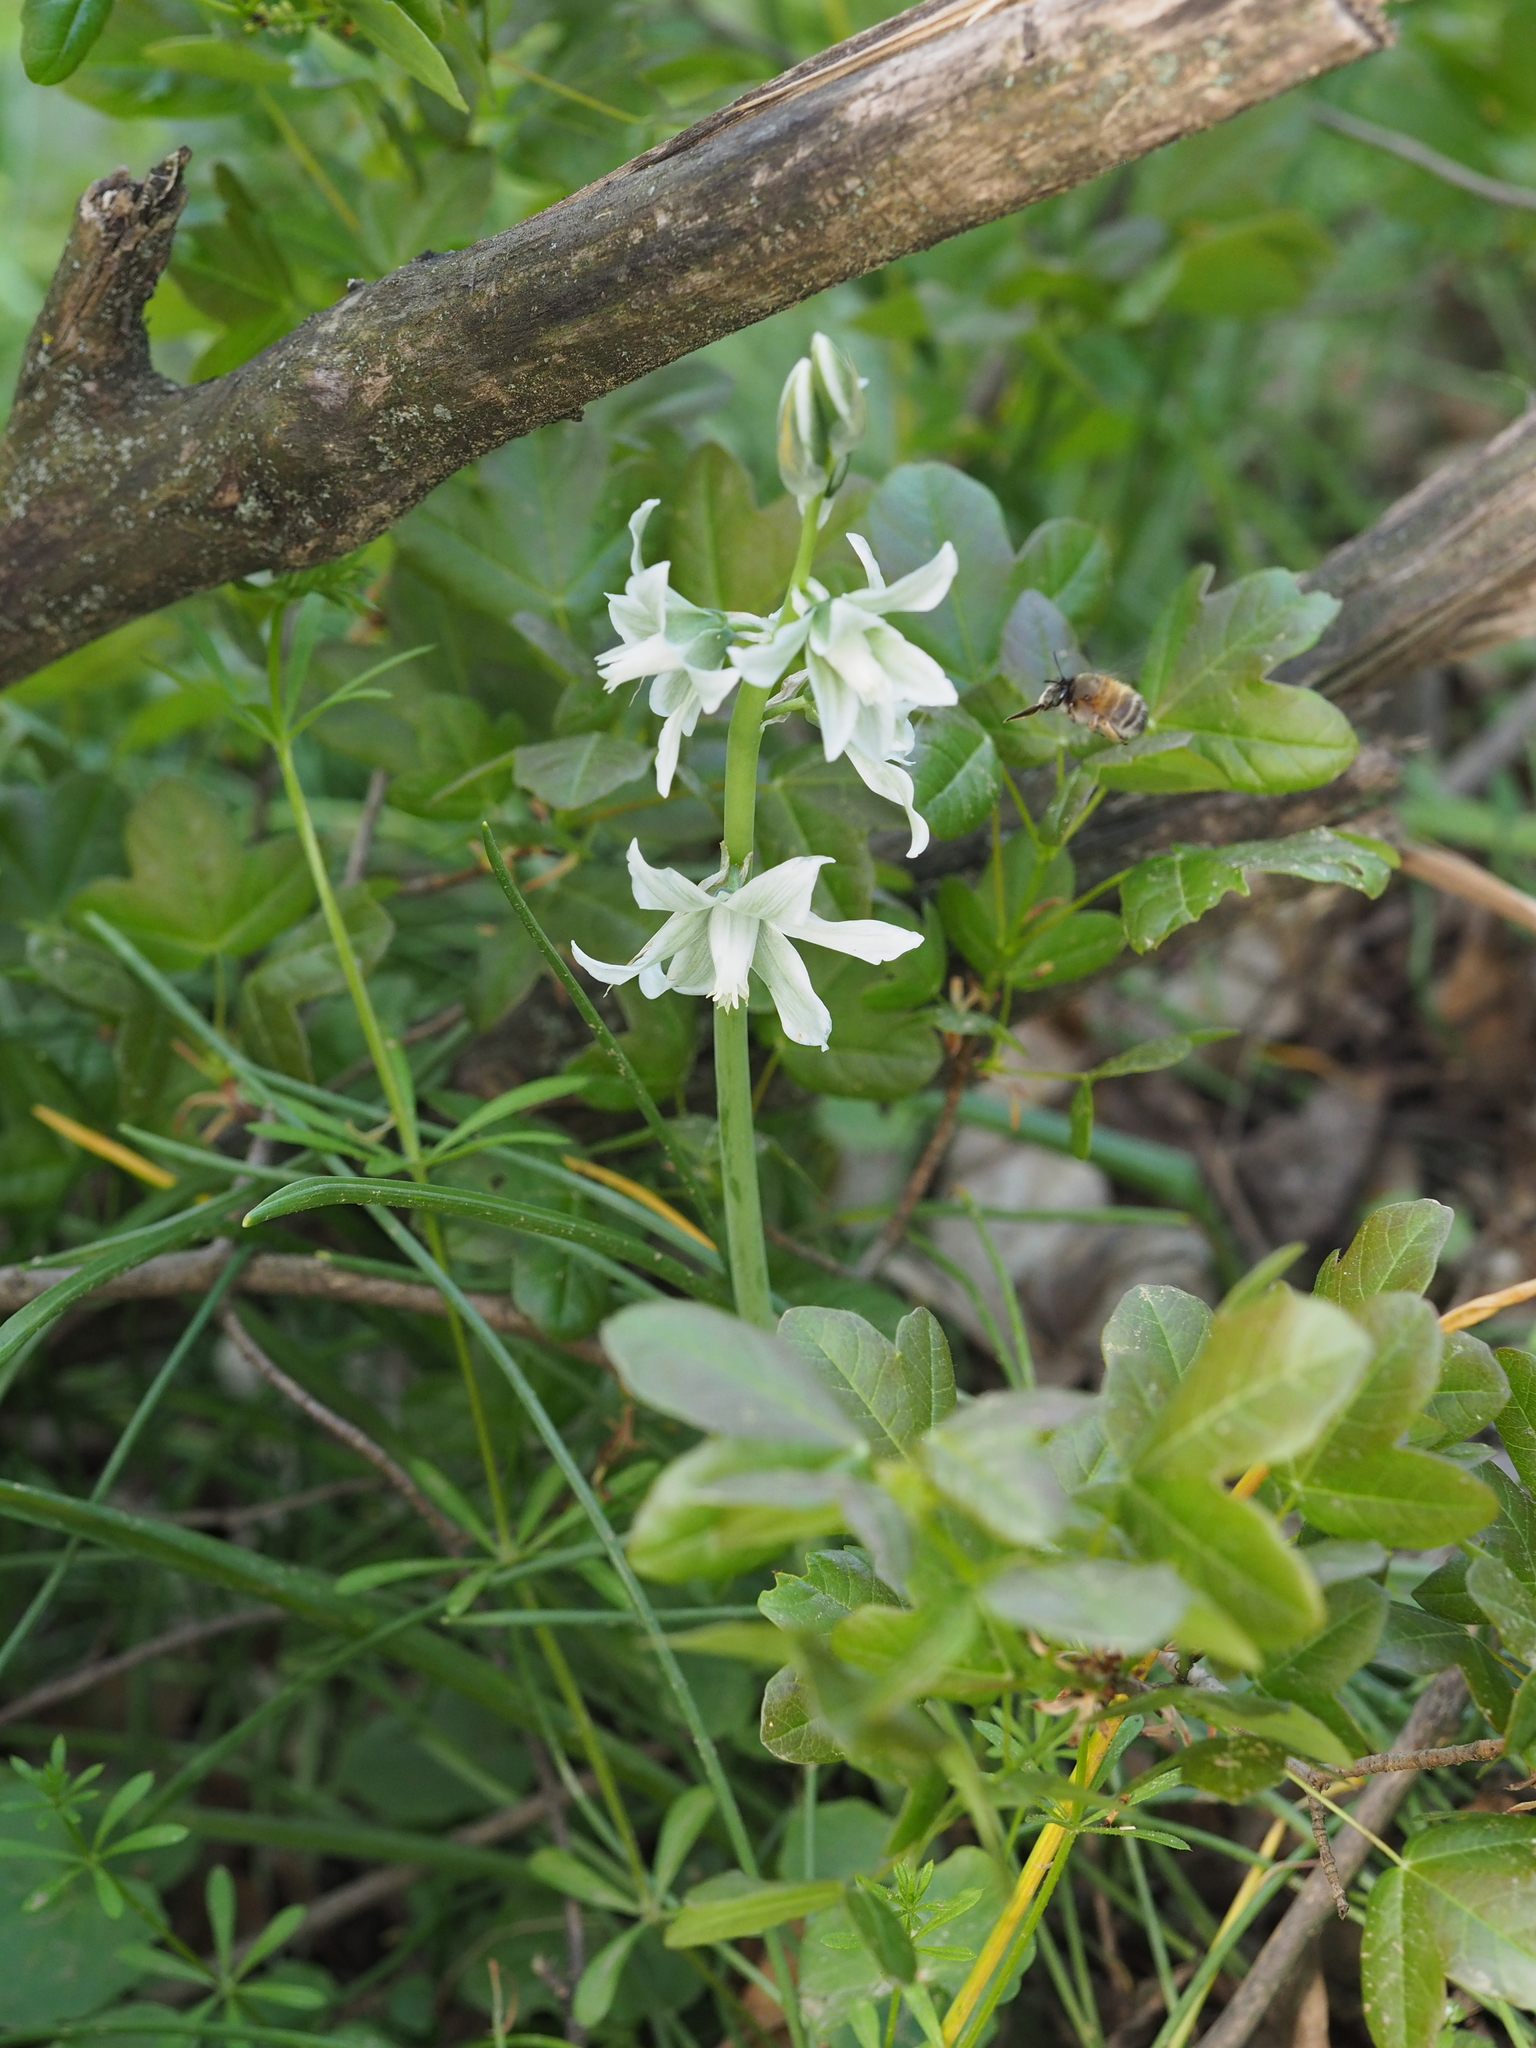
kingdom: Plantae
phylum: Tracheophyta
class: Liliopsida
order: Asparagales
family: Asparagaceae
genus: Ornithogalum
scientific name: Ornithogalum nutans
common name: Drooping star-of-bethlehem
